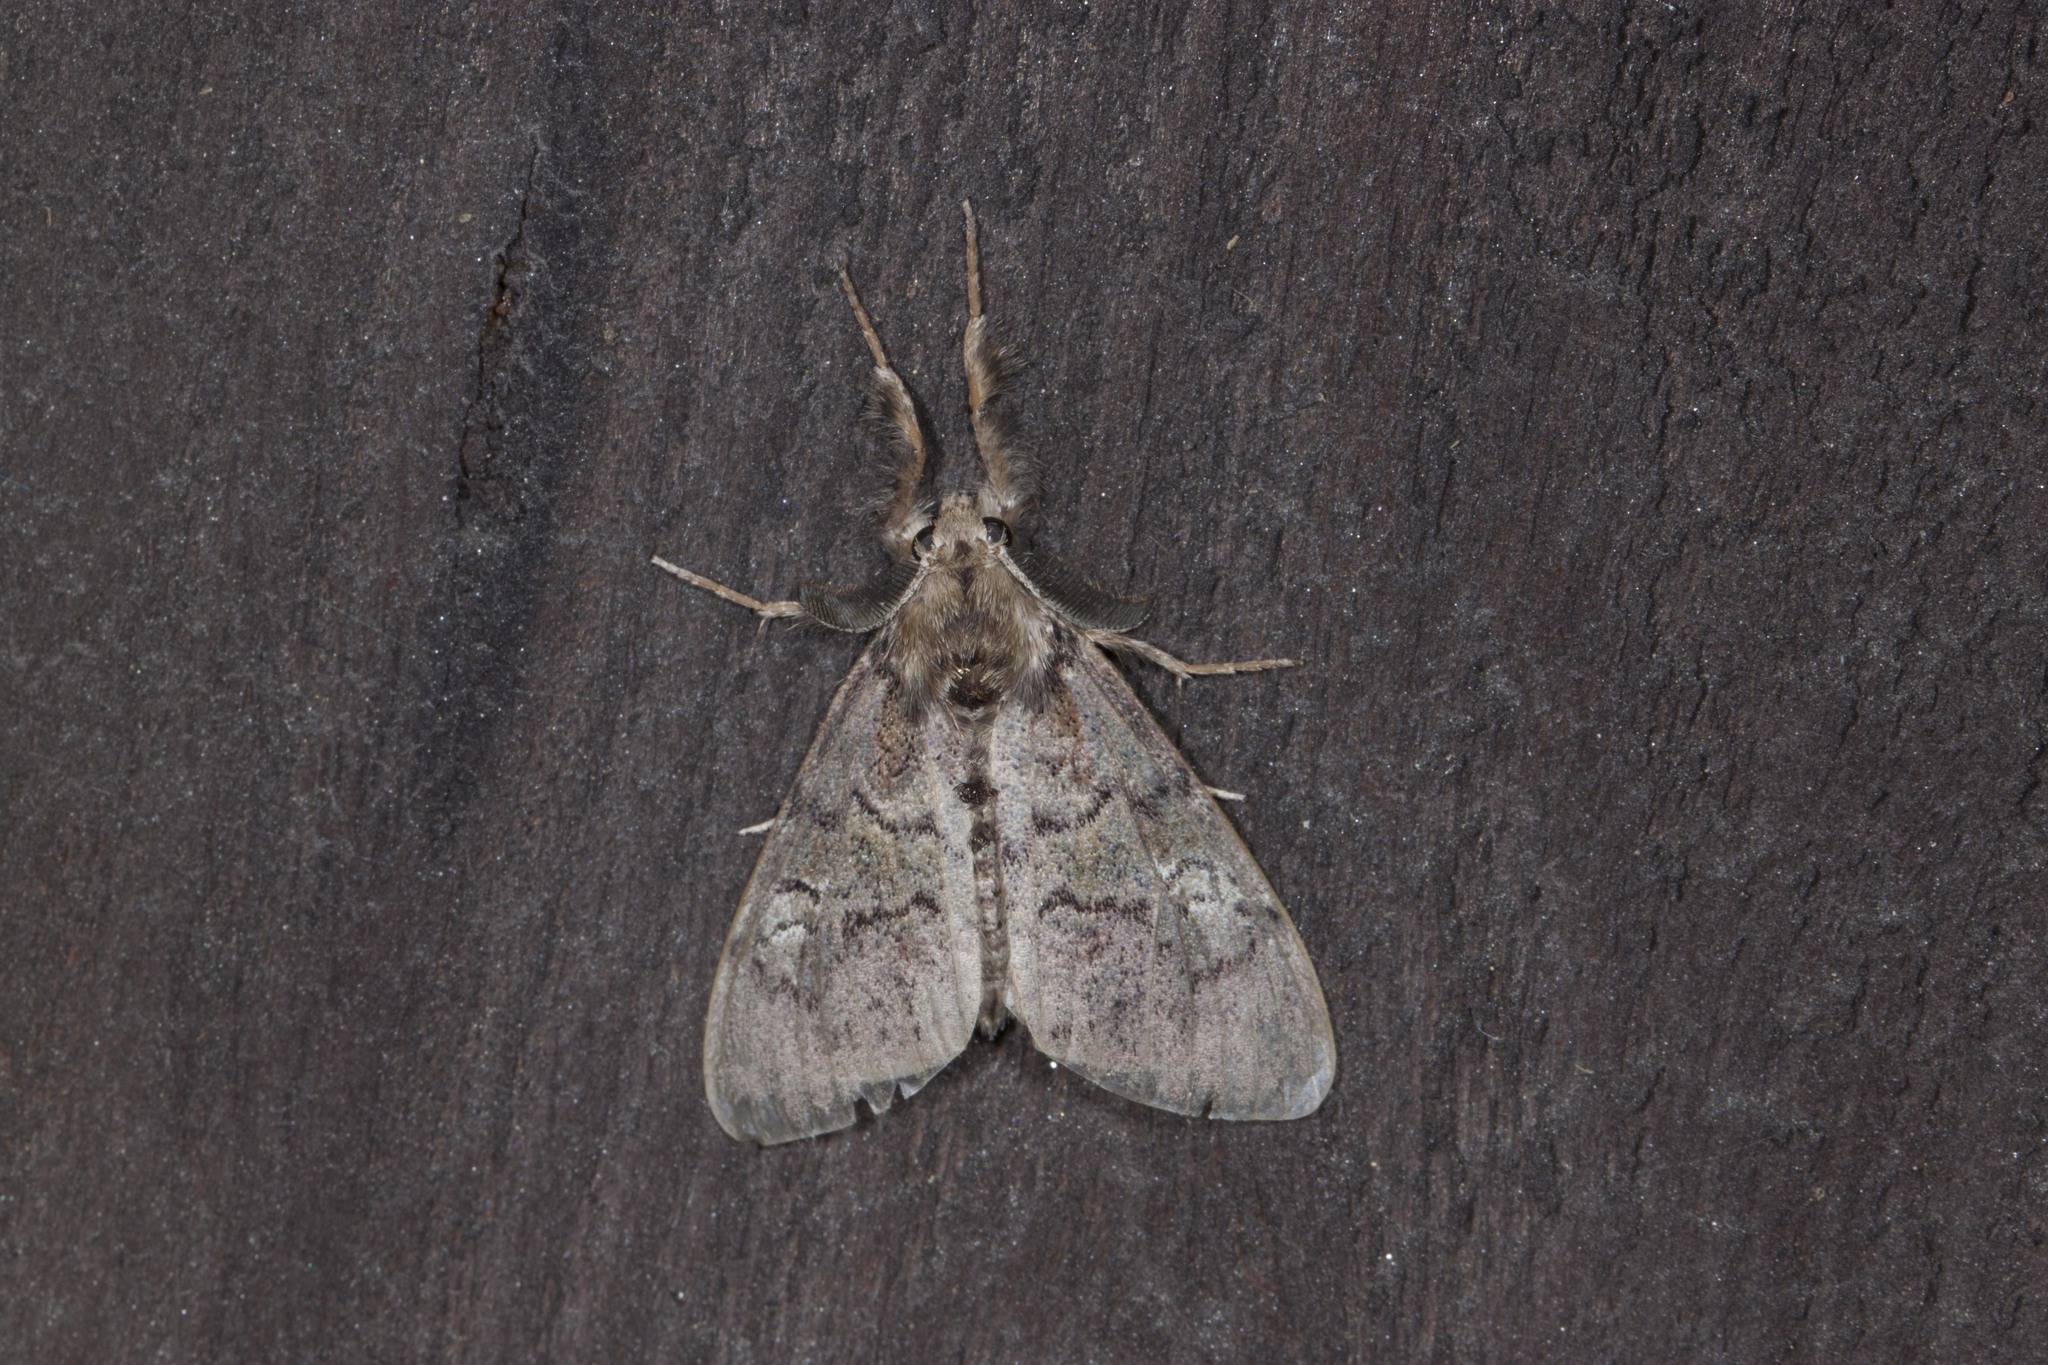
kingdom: Animalia
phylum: Arthropoda
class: Insecta
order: Lepidoptera
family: Erebidae
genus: Dasychira
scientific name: Dasychira vagans
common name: Variable tussock moth
